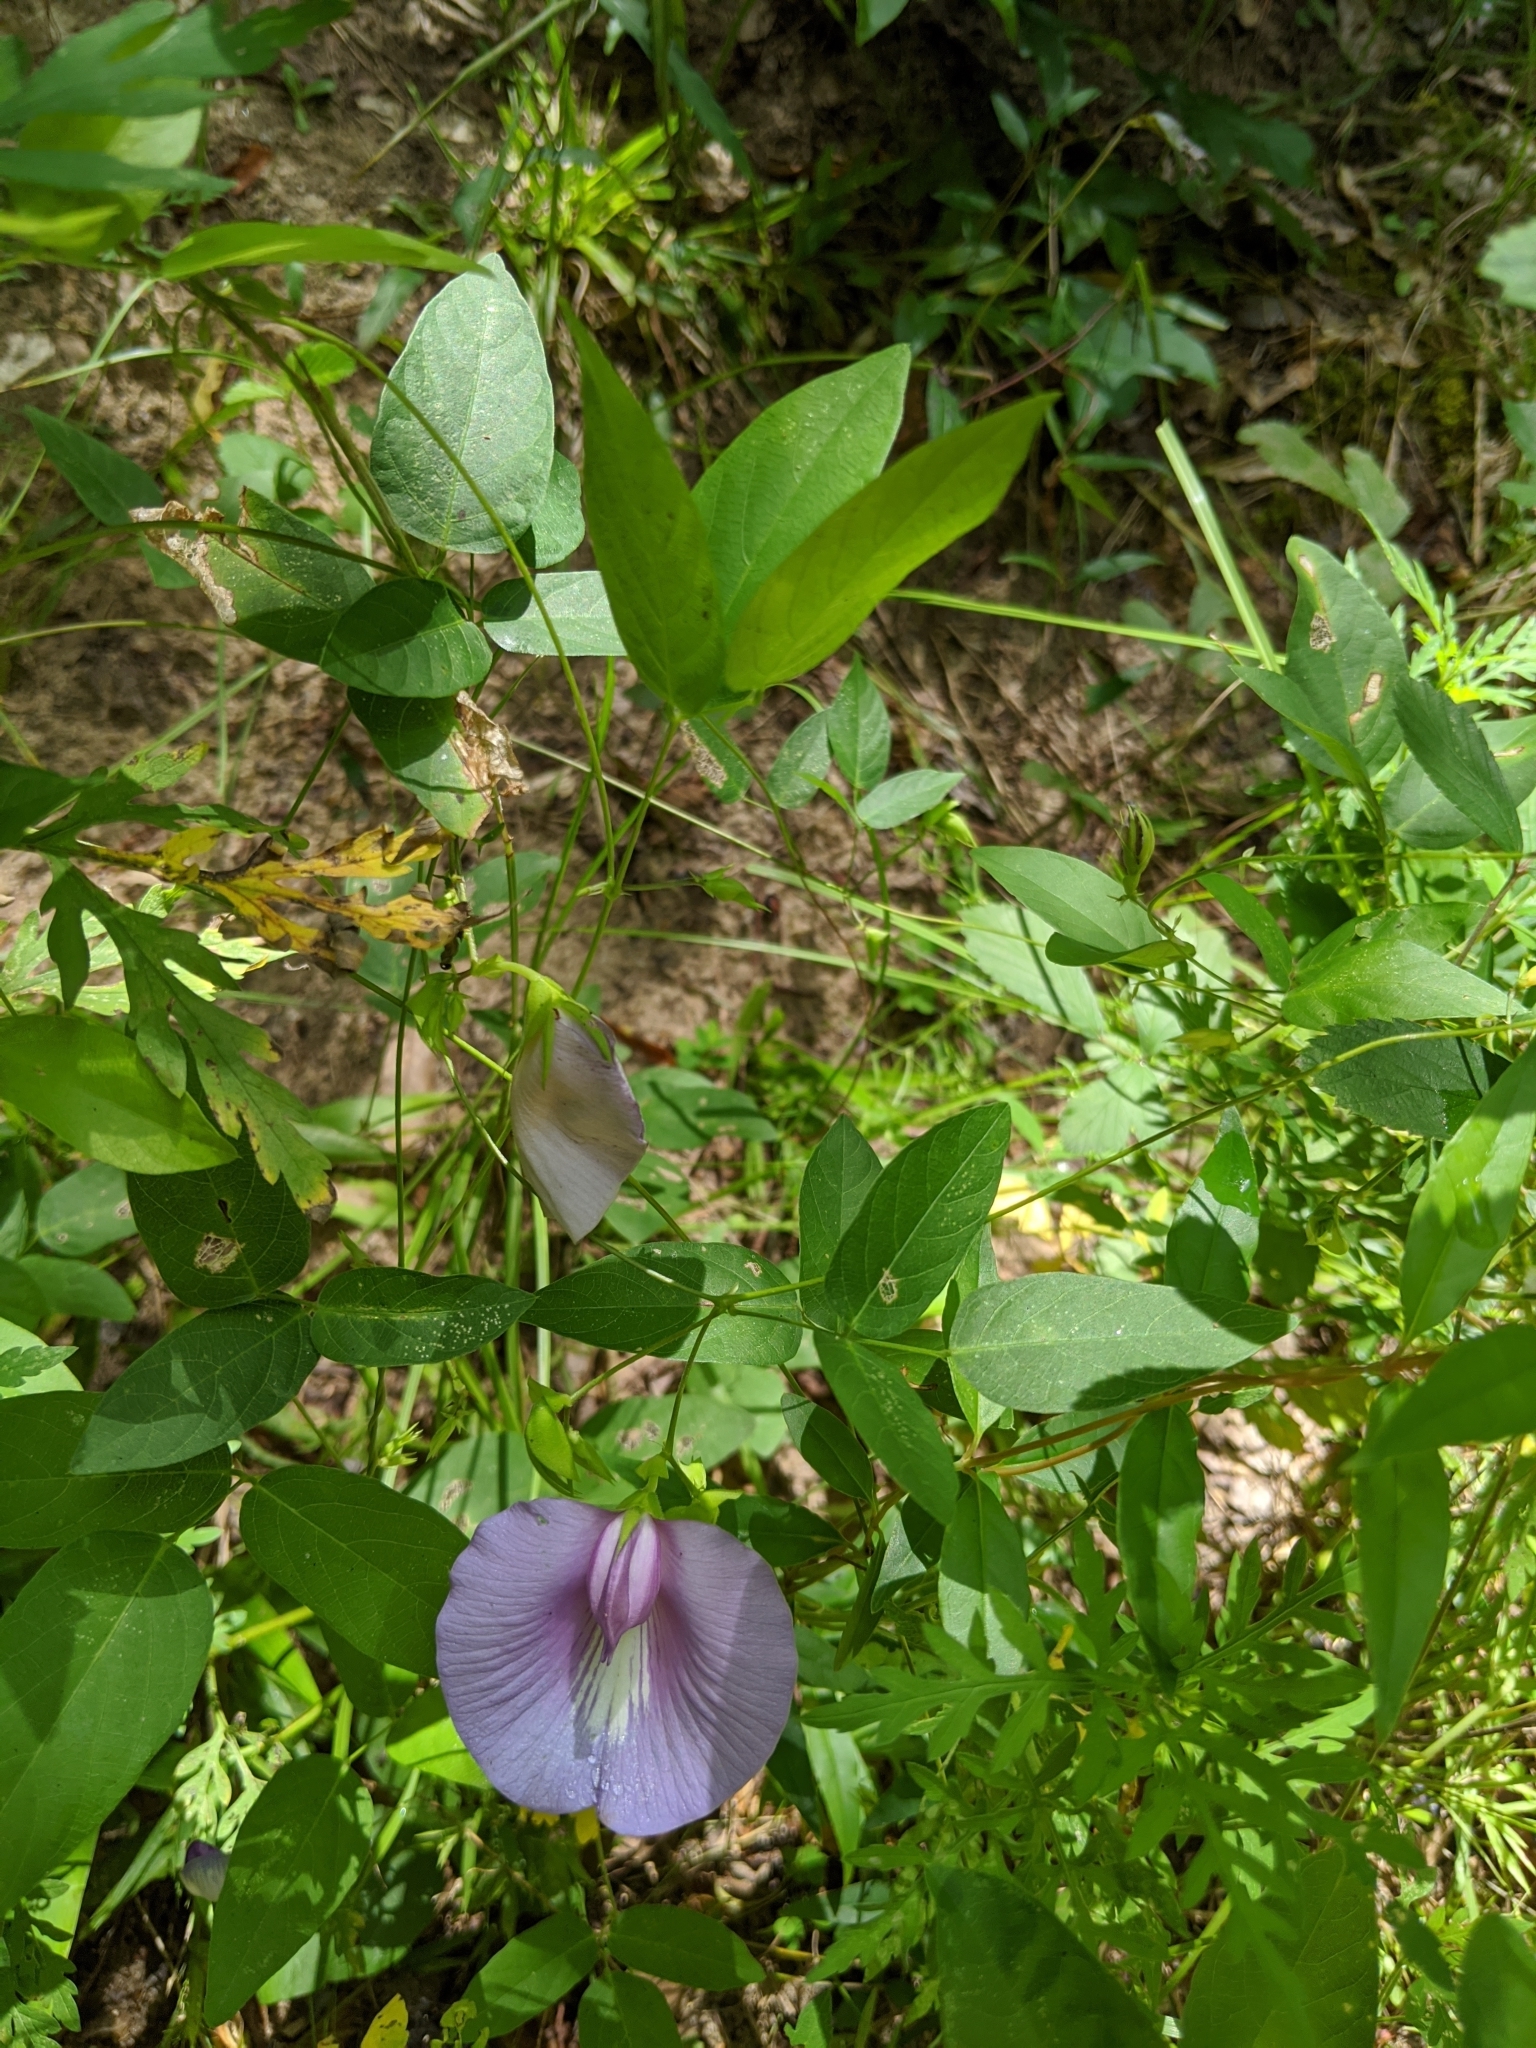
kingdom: Plantae
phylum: Tracheophyta
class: Magnoliopsida
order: Fabales
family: Fabaceae
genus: Centrosema
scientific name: Centrosema virginianum
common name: Butterfly-pea
